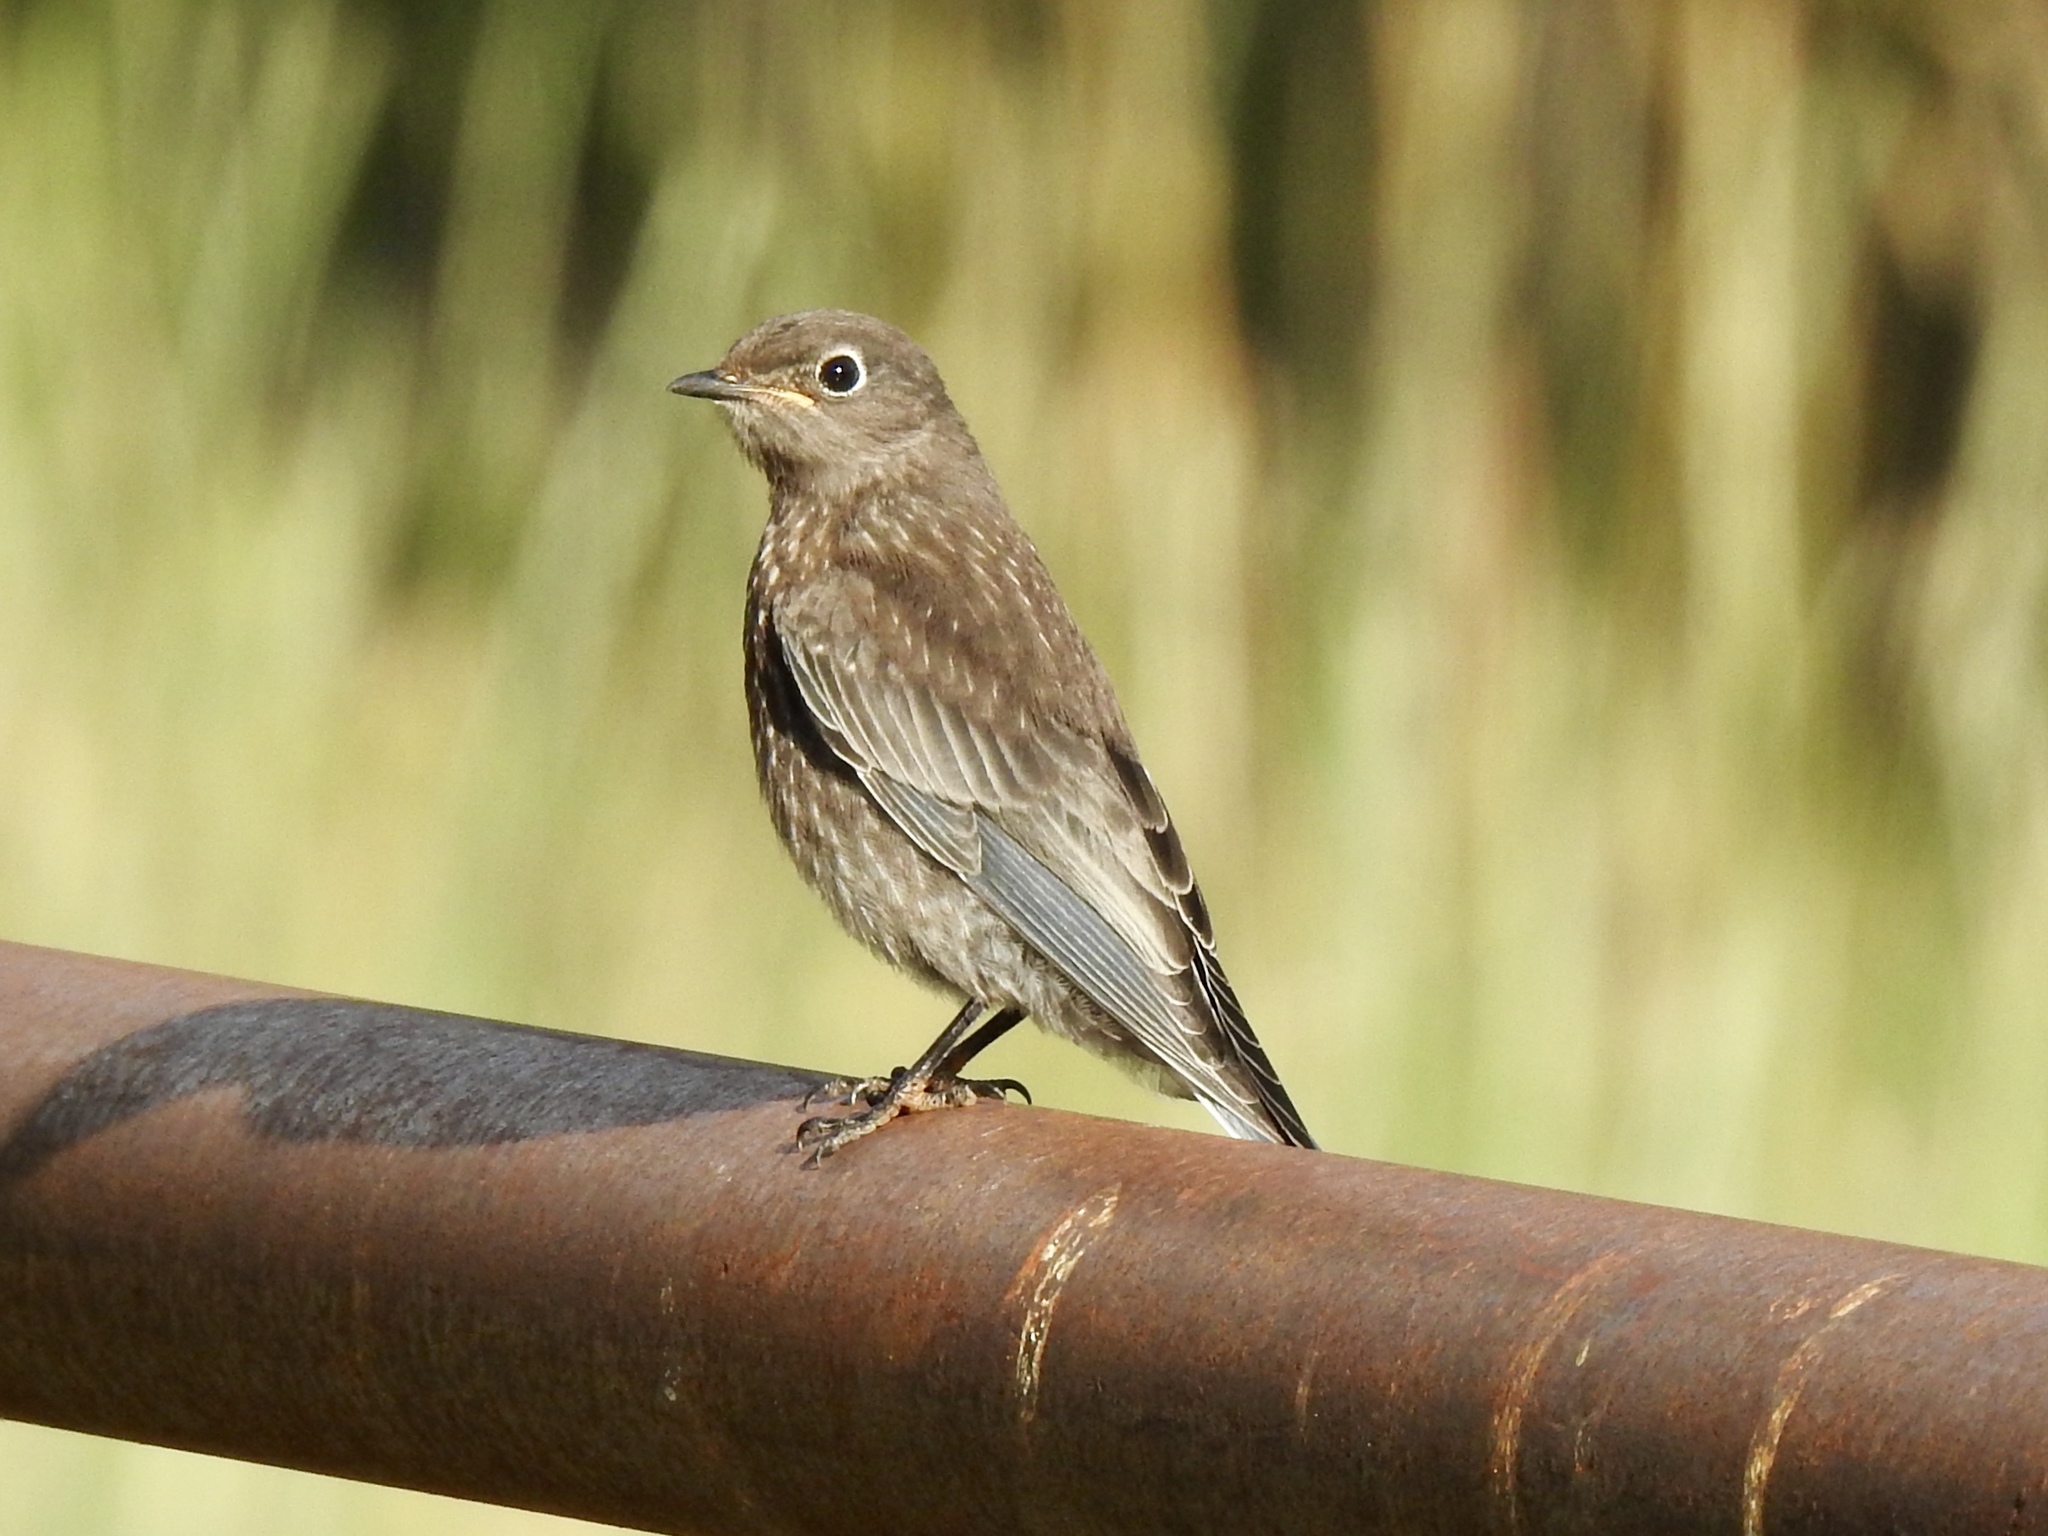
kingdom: Animalia
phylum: Chordata
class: Aves
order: Passeriformes
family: Turdidae
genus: Sialia
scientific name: Sialia currucoides
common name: Mountain bluebird
